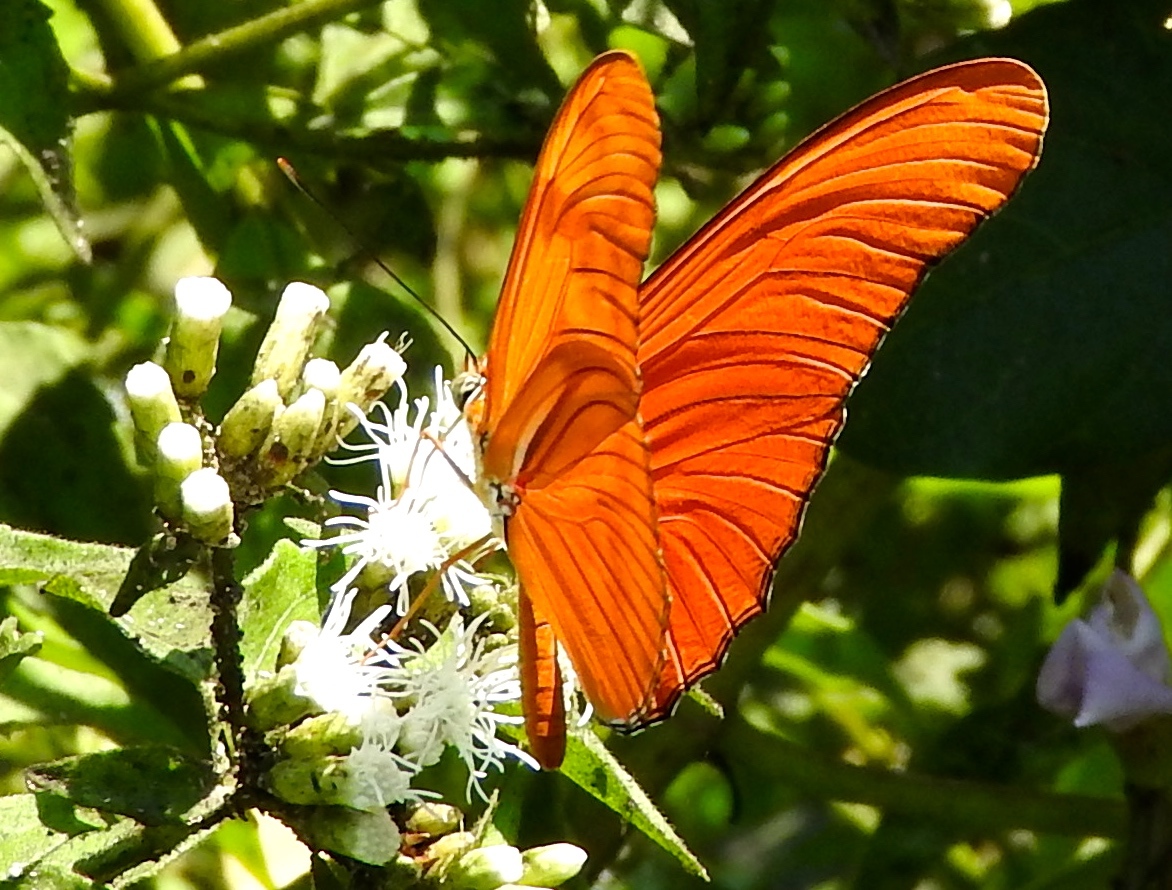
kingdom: Animalia
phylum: Arthropoda
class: Insecta
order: Lepidoptera
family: Nymphalidae
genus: Dryas
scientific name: Dryas iulia
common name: Flambeau
